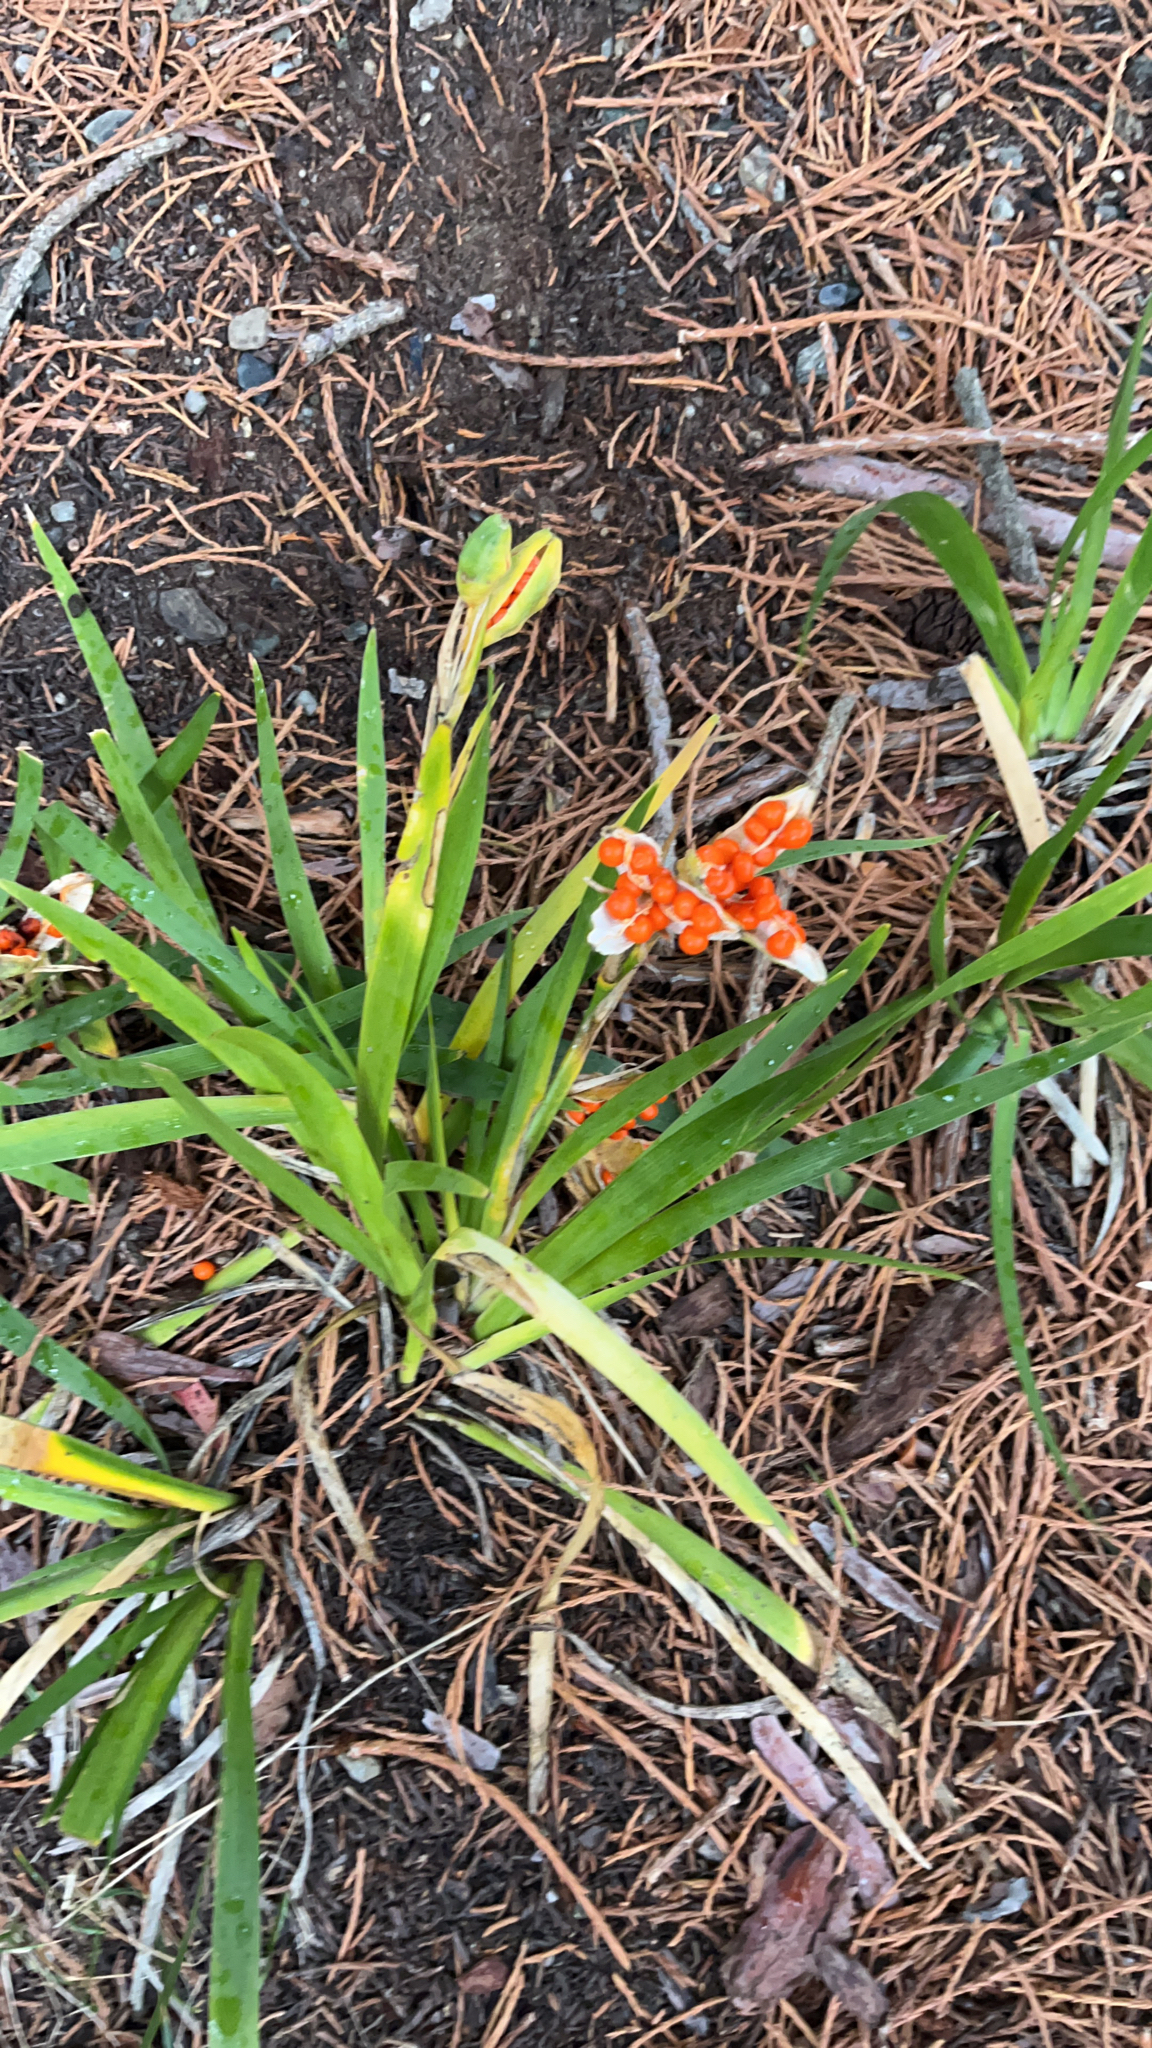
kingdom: Plantae
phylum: Tracheophyta
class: Liliopsida
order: Asparagales
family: Iridaceae
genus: Iris
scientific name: Iris foetidissima
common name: Stinking iris
